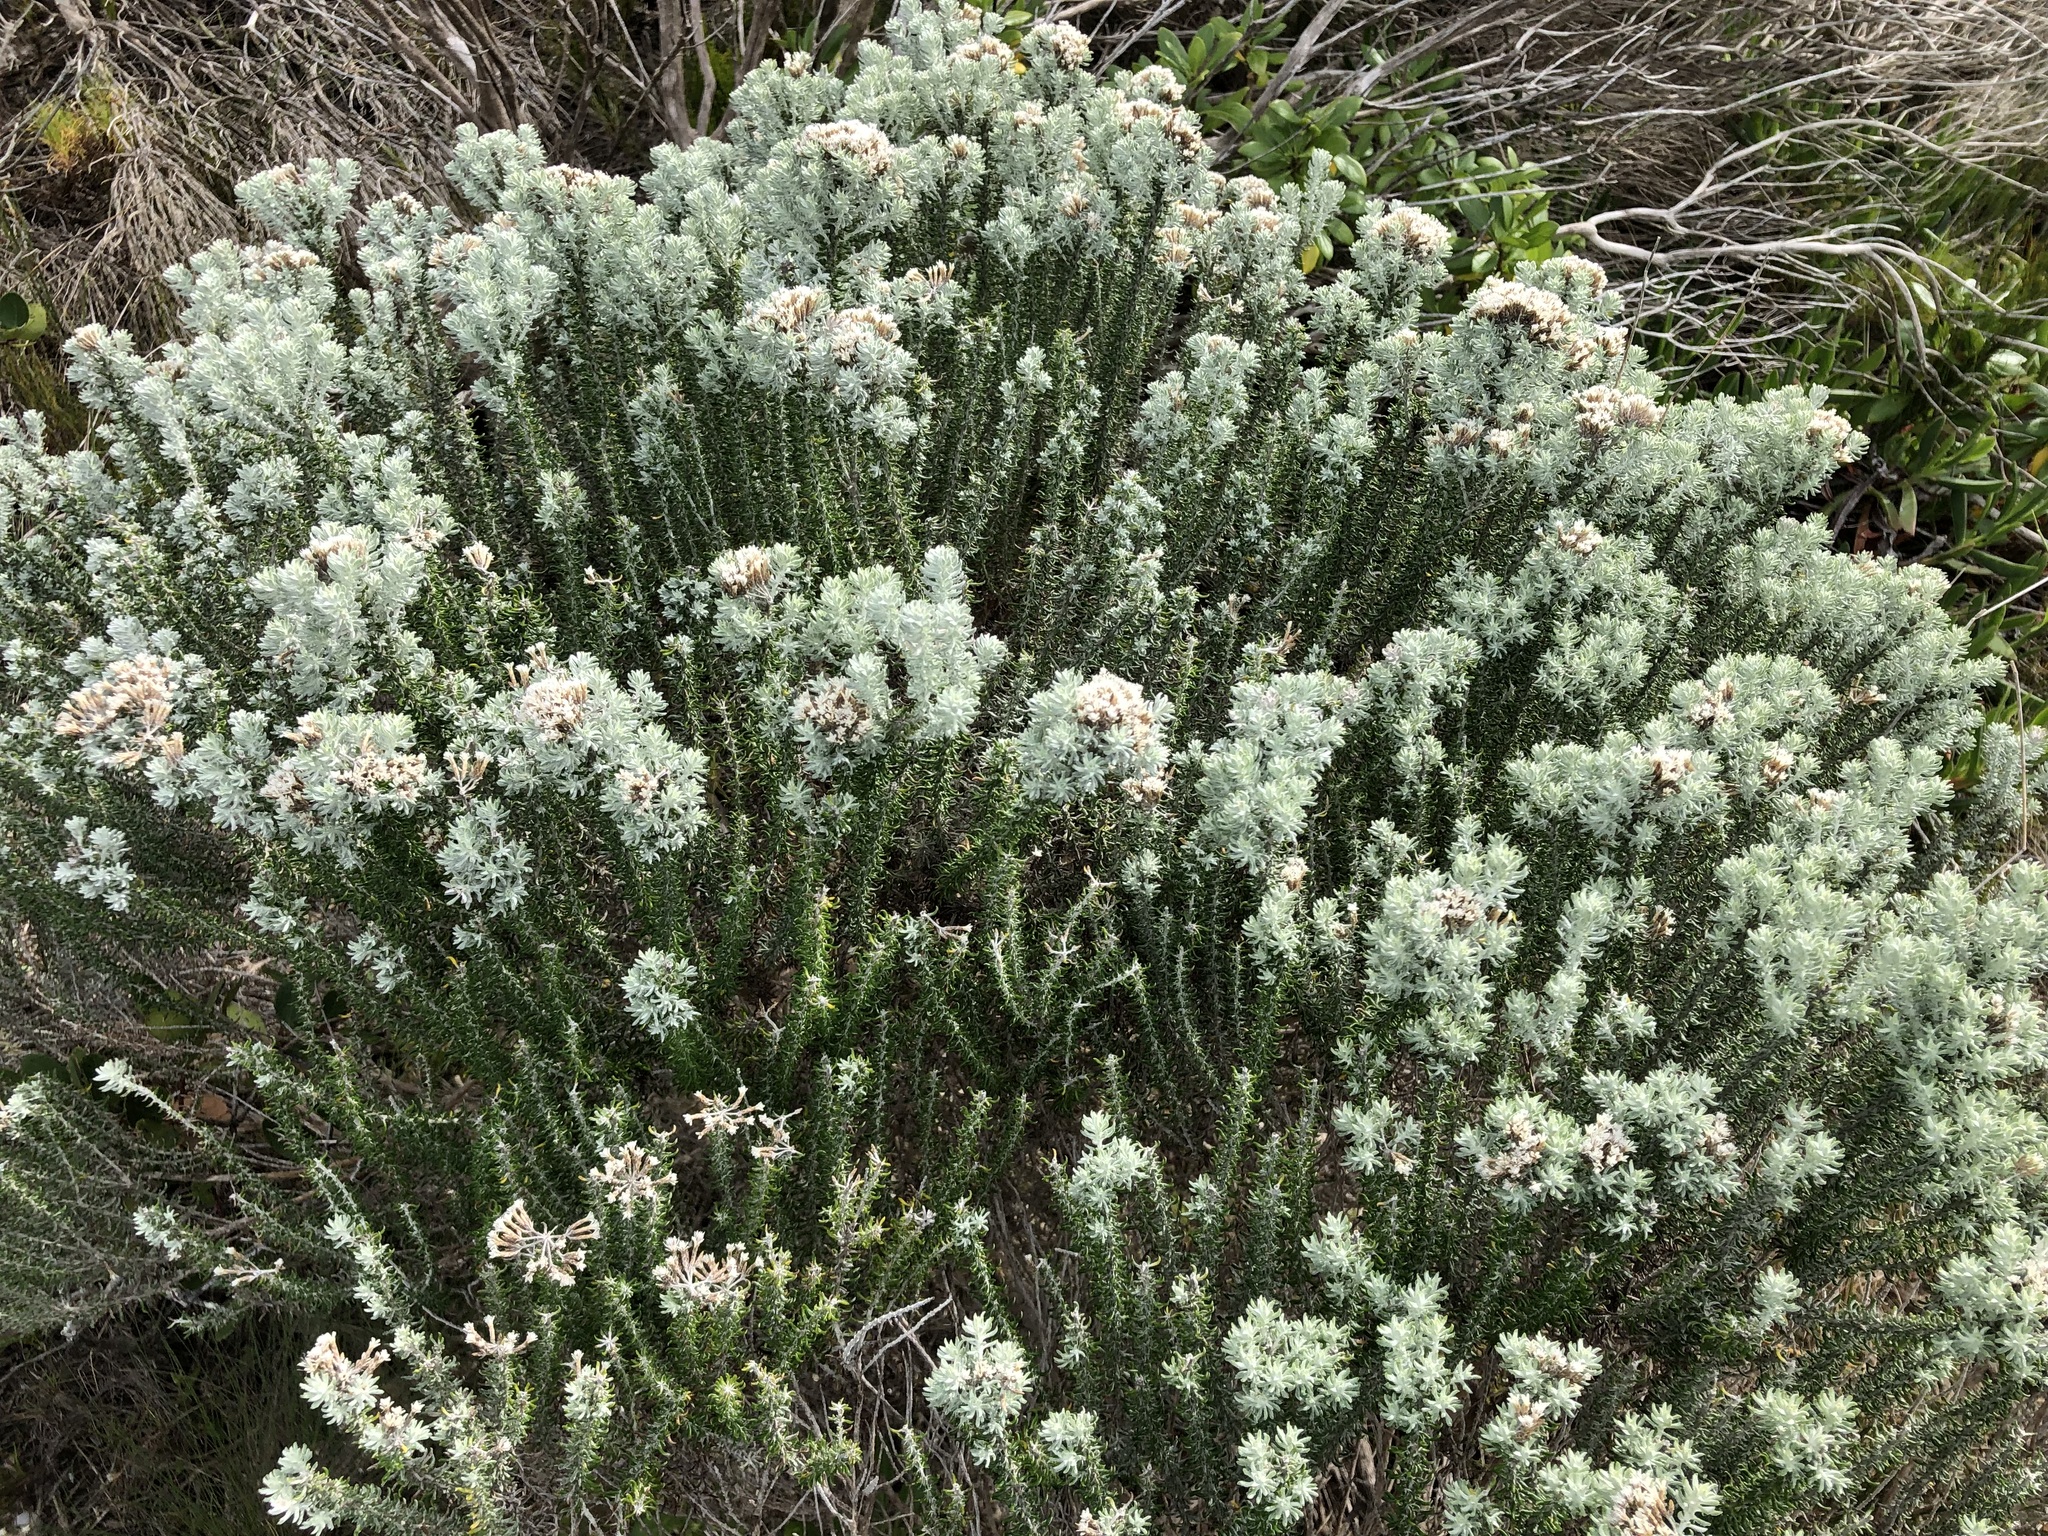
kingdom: Plantae
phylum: Tracheophyta
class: Magnoliopsida
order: Asterales
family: Asteraceae
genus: Metalasia
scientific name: Metalasia muricata
